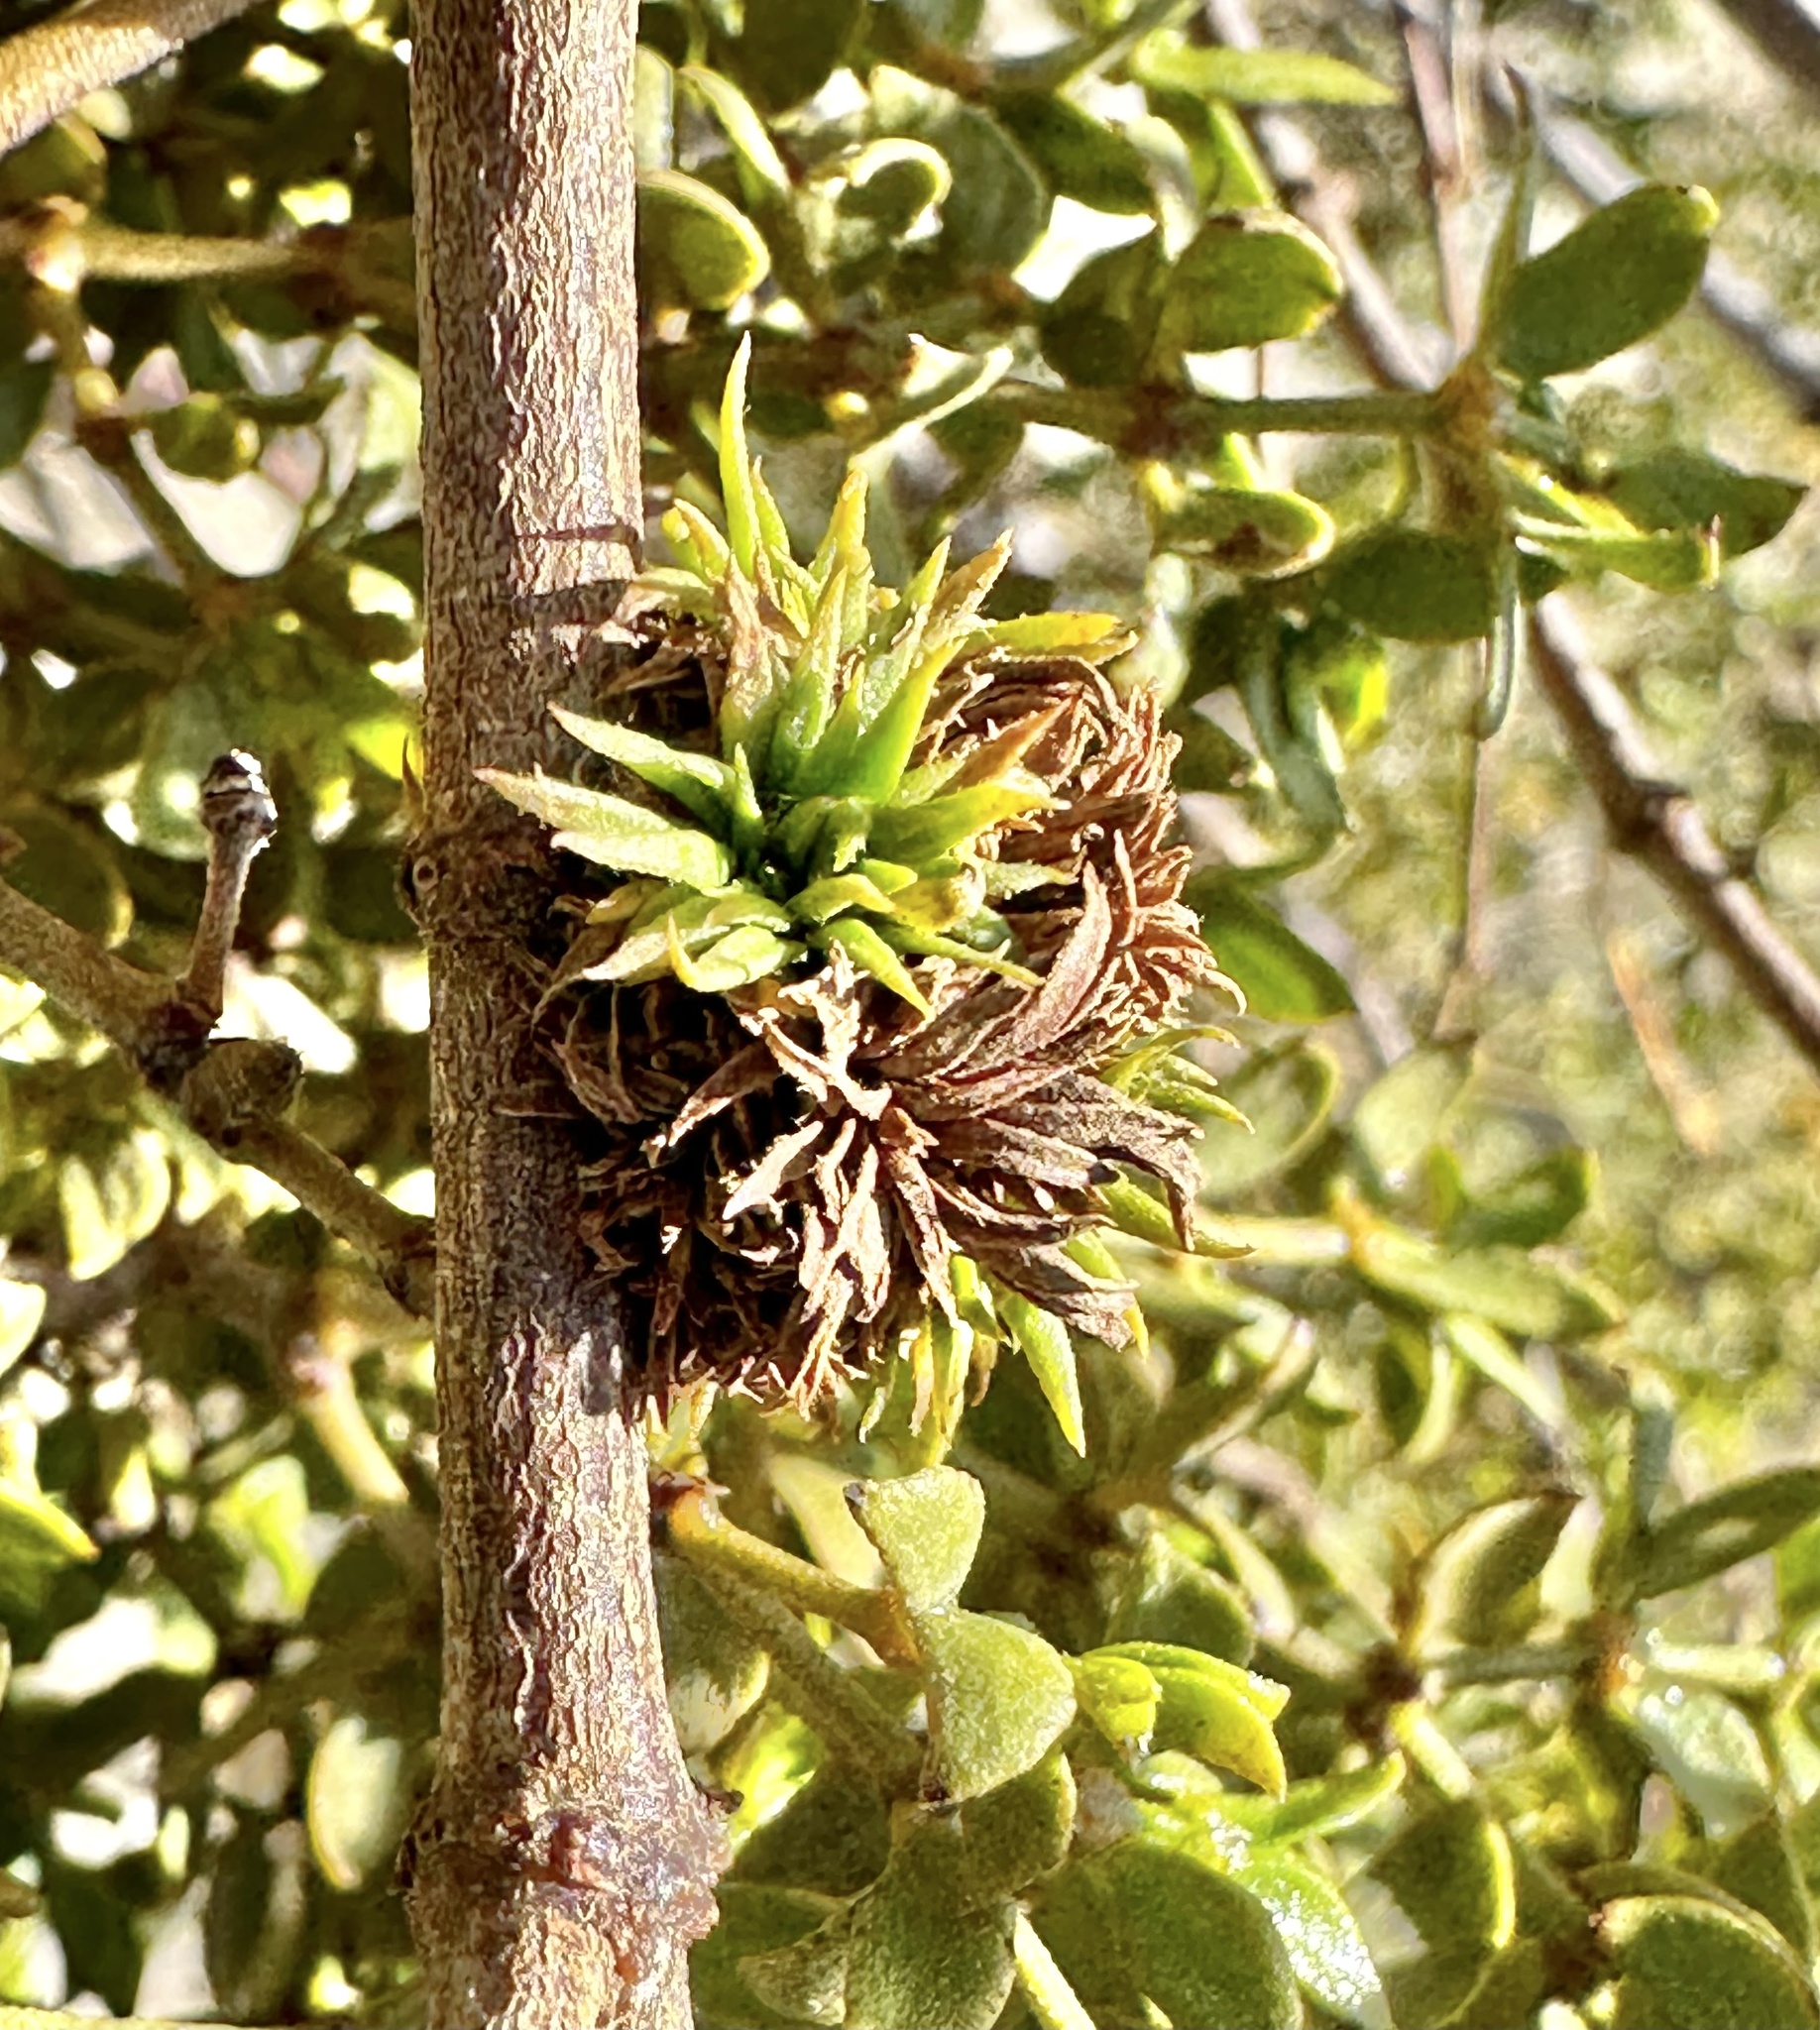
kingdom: Animalia
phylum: Arthropoda
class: Insecta
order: Diptera
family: Cecidomyiidae
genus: Asphondylia
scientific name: Asphondylia auripila
